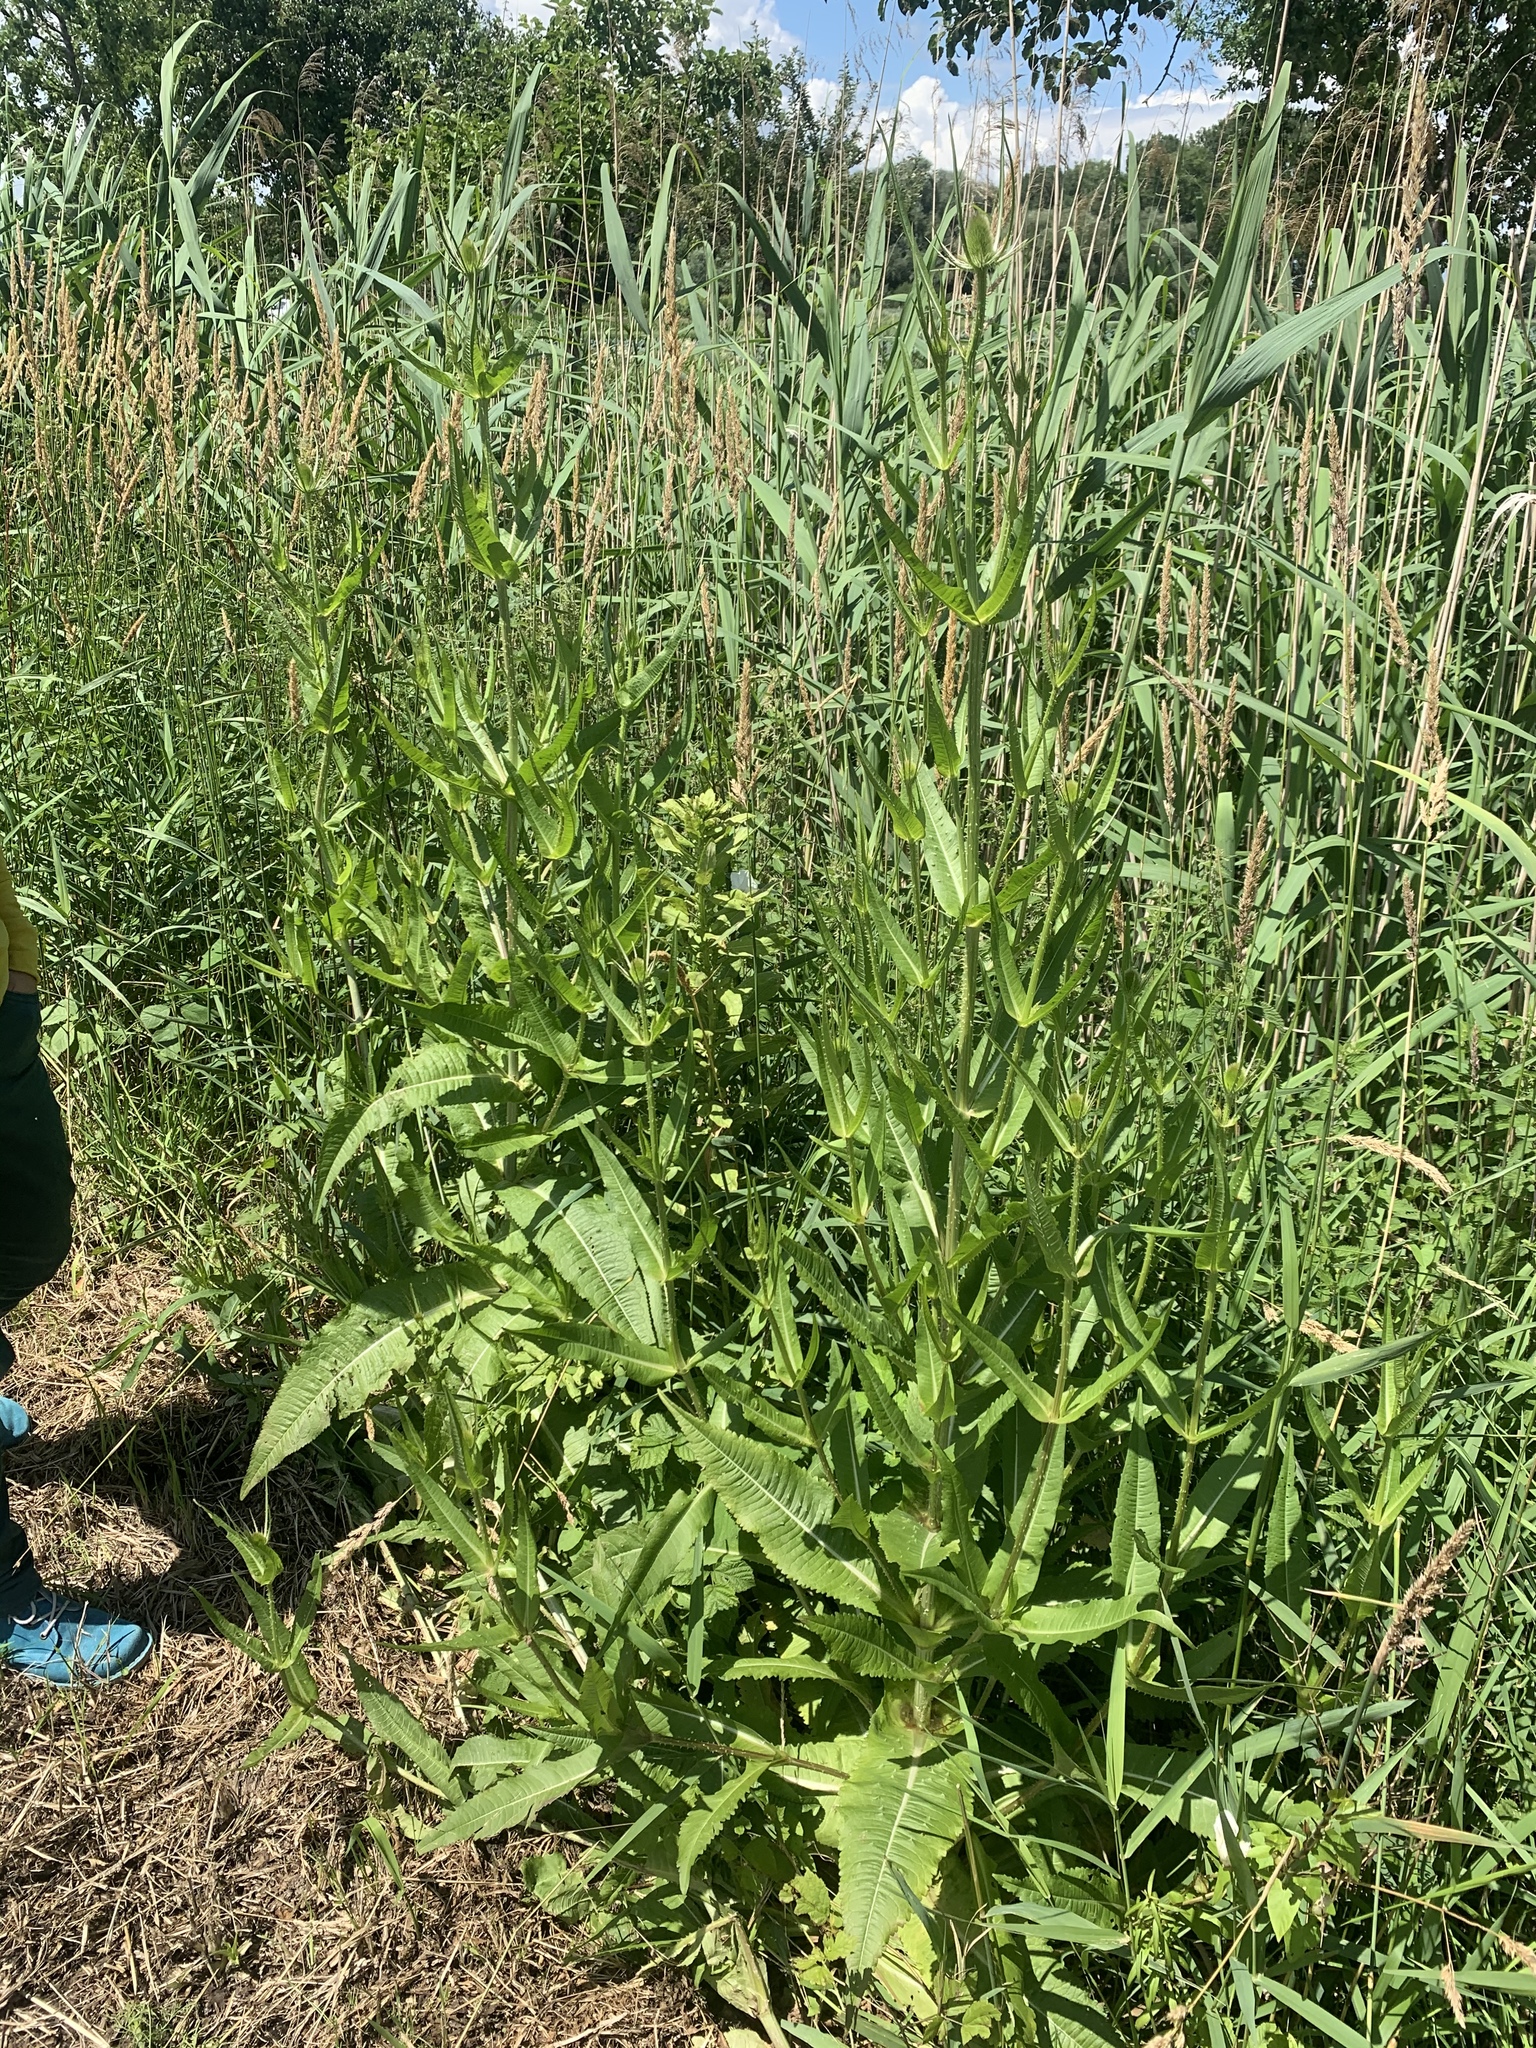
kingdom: Plantae
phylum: Tracheophyta
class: Magnoliopsida
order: Dipsacales
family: Caprifoliaceae
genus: Dipsacus
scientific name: Dipsacus fullonum
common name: Teasel
